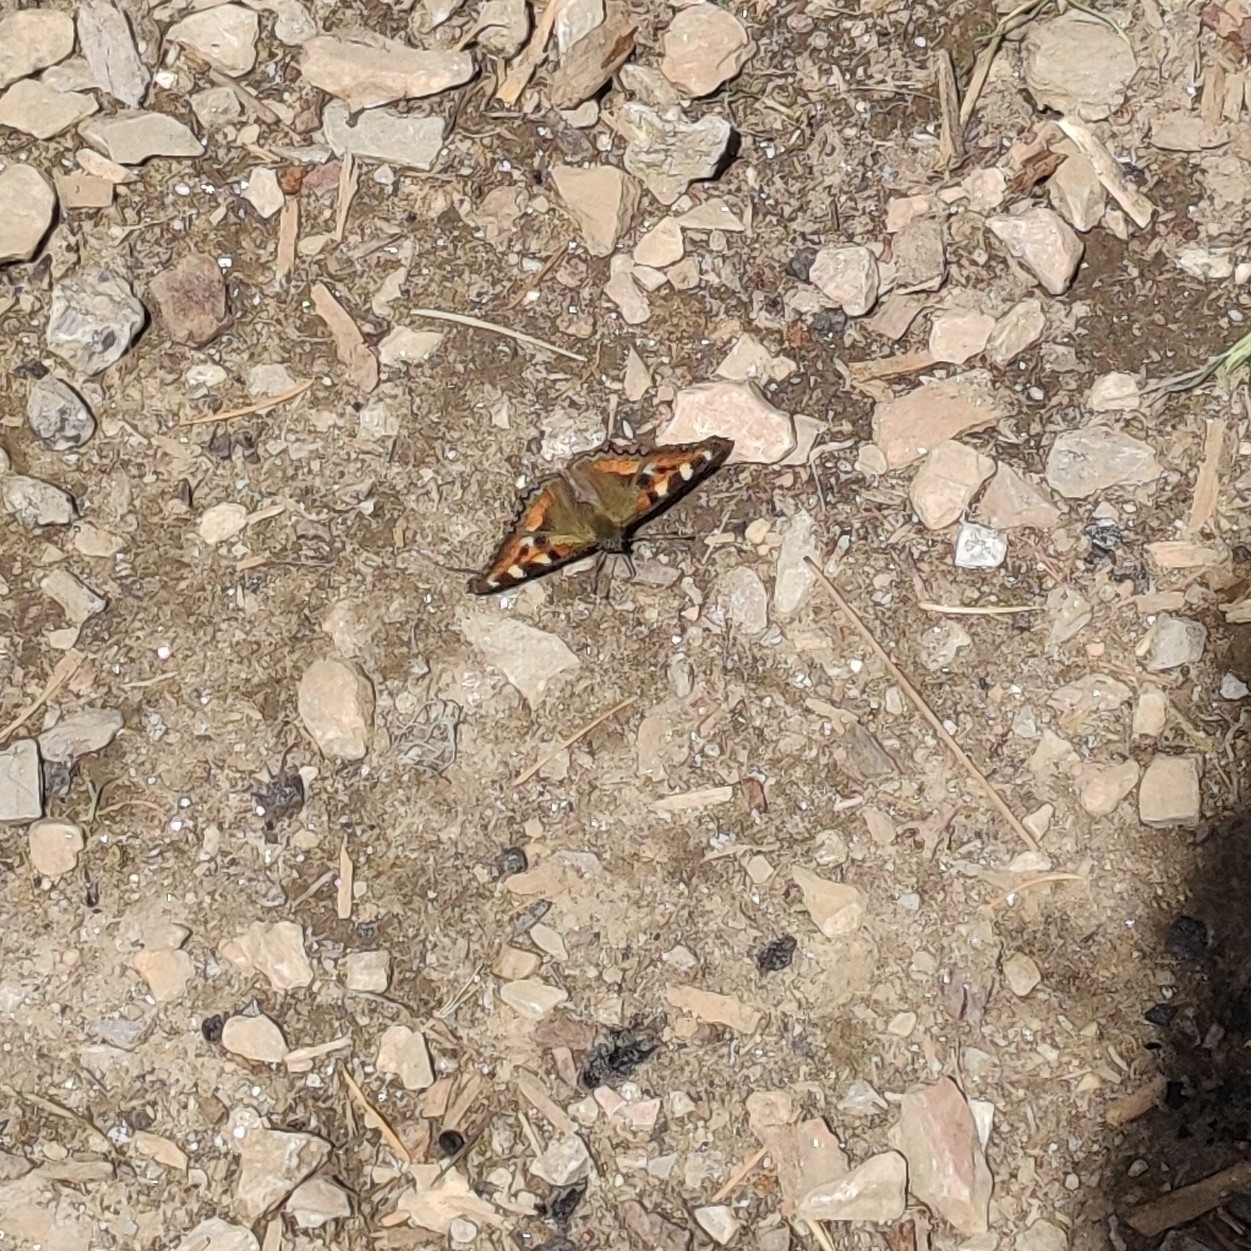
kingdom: Animalia
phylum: Arthropoda
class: Insecta
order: Lepidoptera
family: Nymphalidae
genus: Aglais
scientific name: Aglais caschmirensis
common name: Indian tortoiseshell
